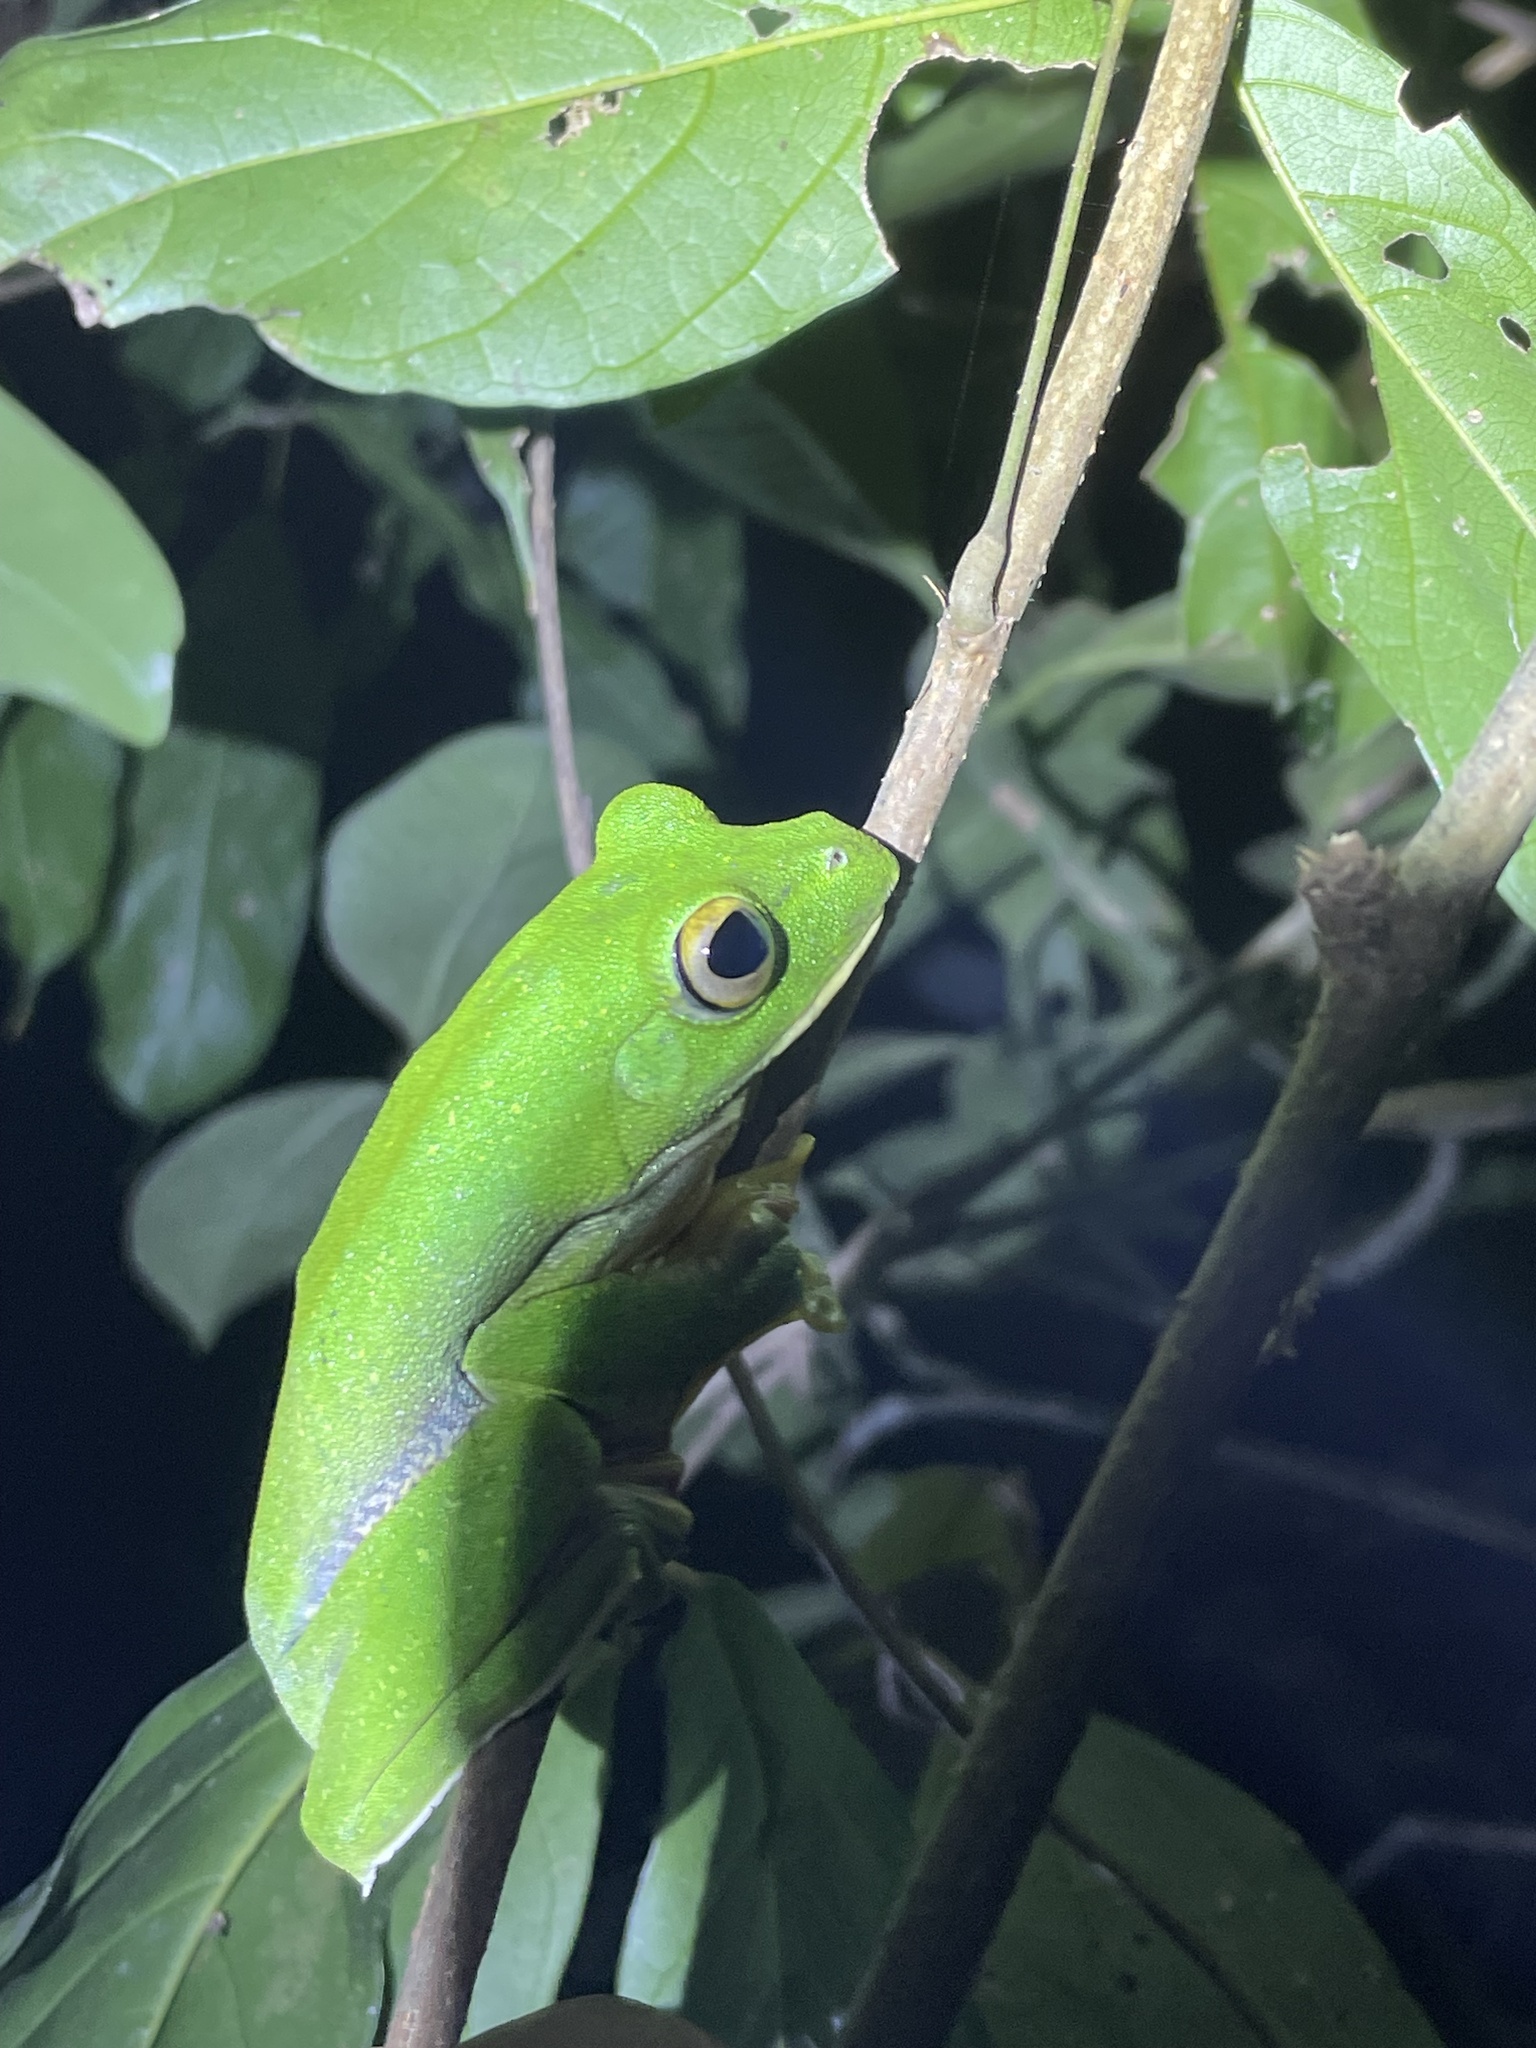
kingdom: Animalia
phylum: Chordata
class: Amphibia
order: Anura
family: Rhacophoridae
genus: Rhacophorus
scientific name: Rhacophorus malabaricus
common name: Malabar gliding frog
